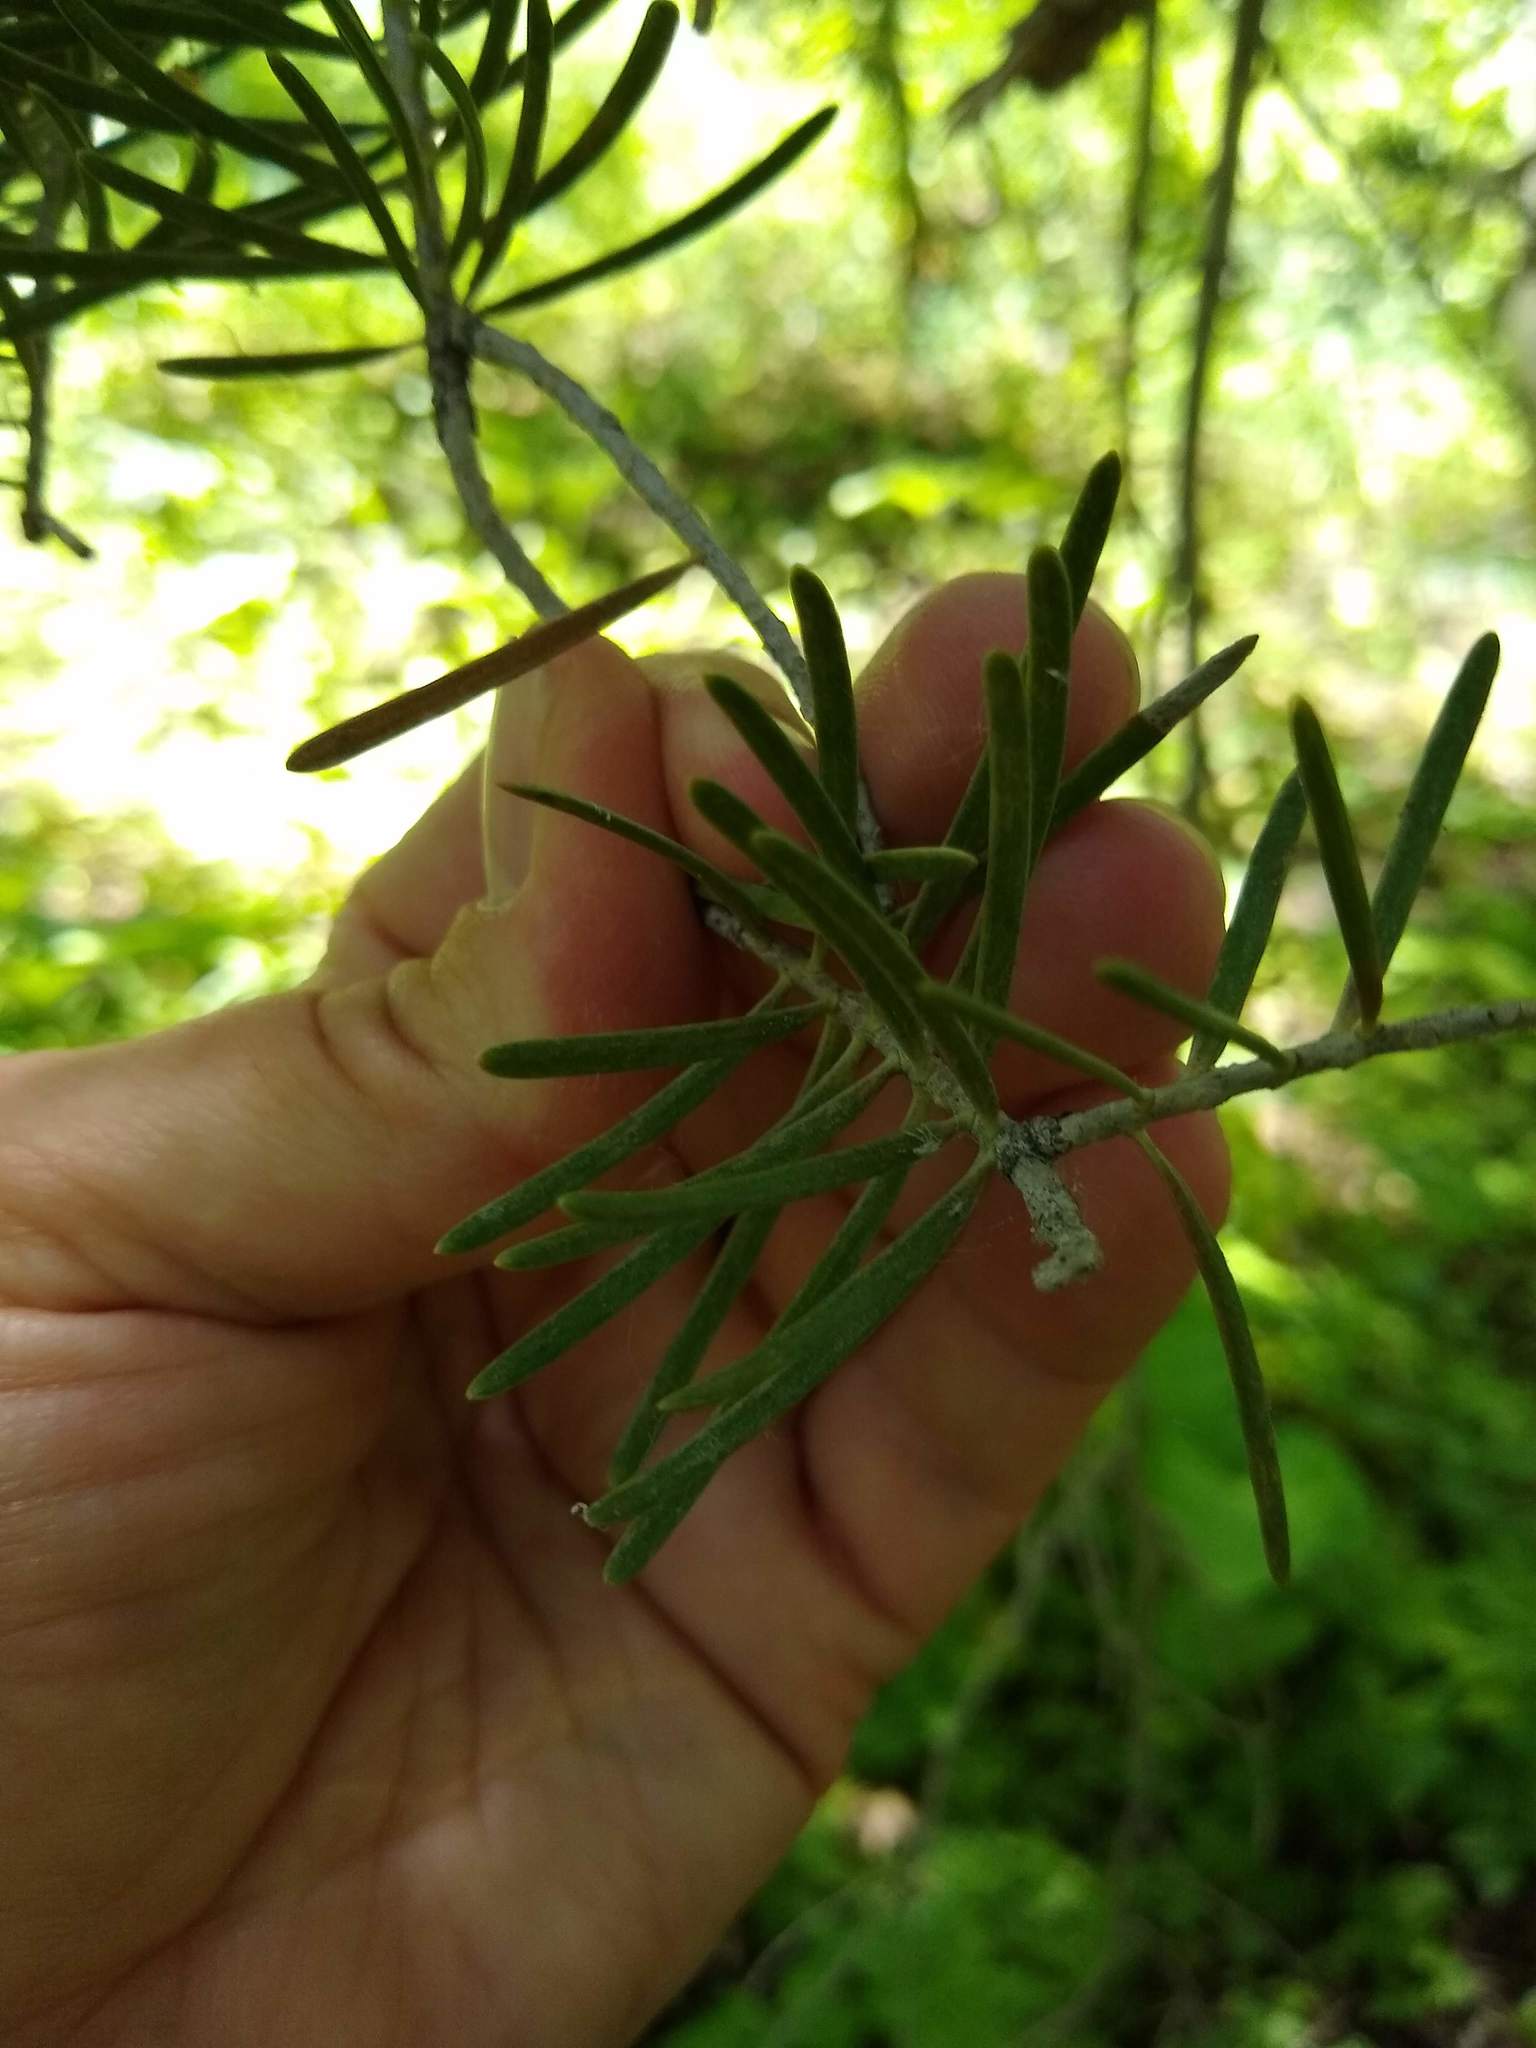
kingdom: Plantae
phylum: Tracheophyta
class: Pinopsida
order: Pinales
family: Pinaceae
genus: Abies
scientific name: Abies concolor
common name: Colorado fir
